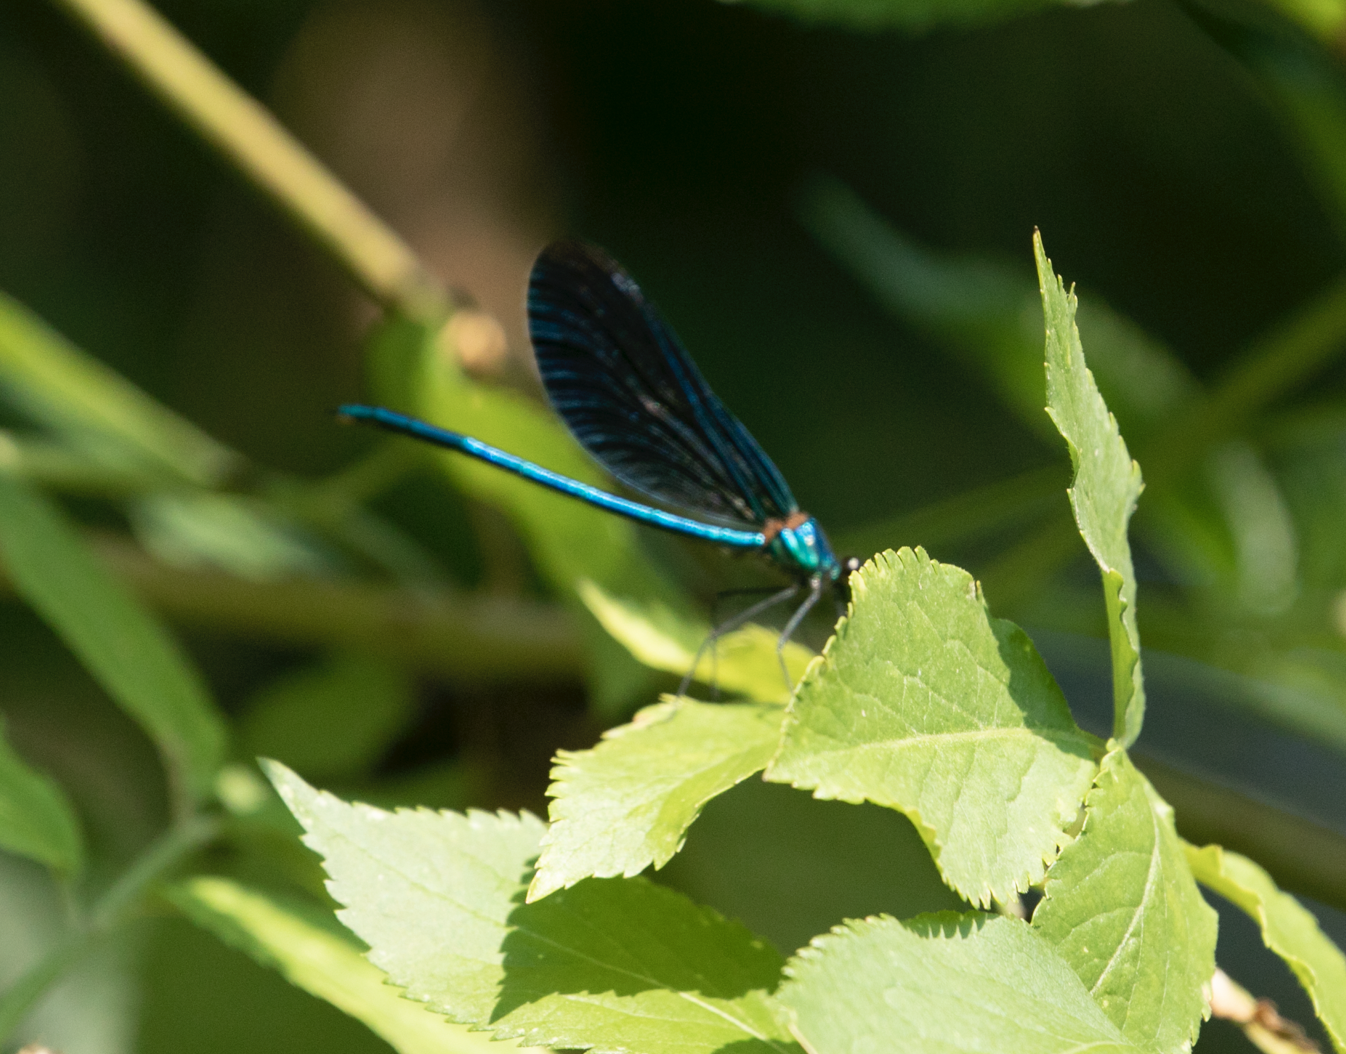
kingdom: Animalia
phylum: Arthropoda
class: Insecta
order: Odonata
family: Calopterygidae
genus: Calopteryx
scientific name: Calopteryx virgo
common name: Beautiful demoiselle
